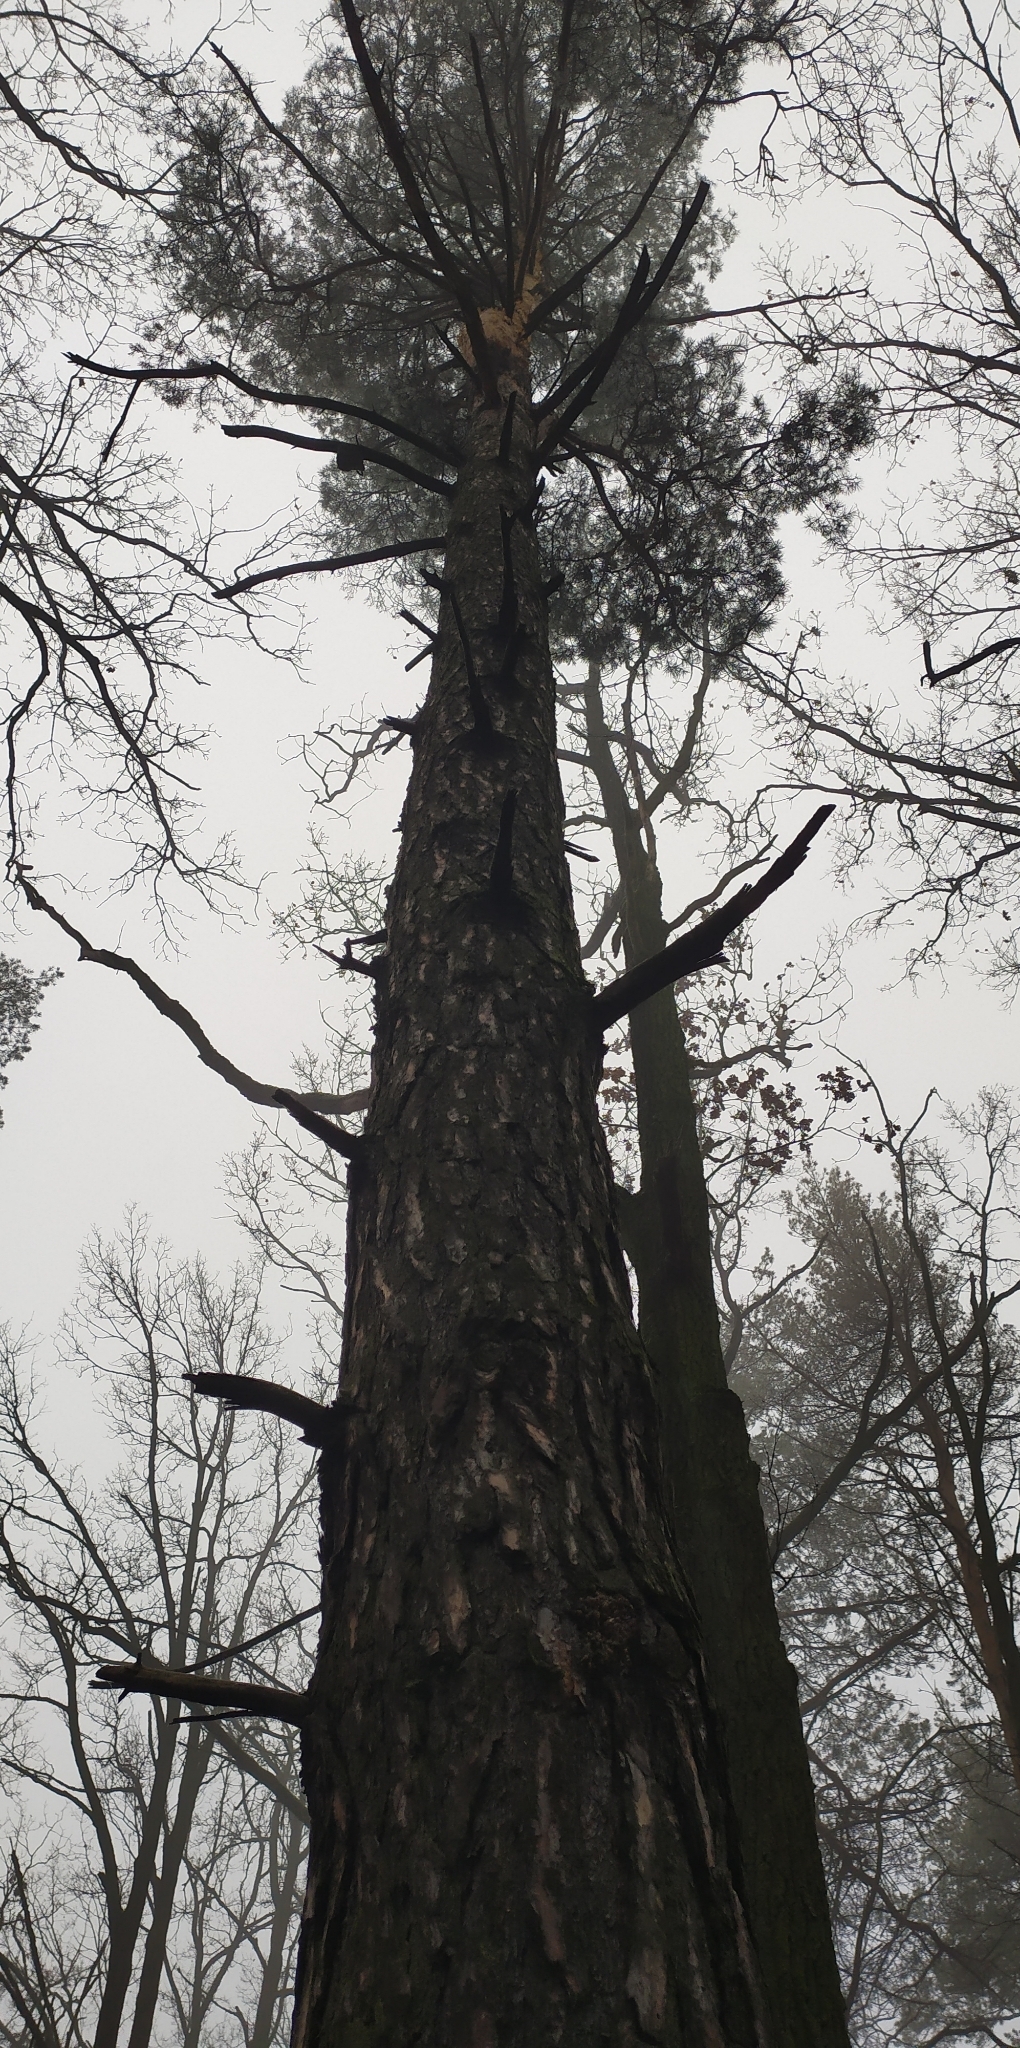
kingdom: Plantae
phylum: Tracheophyta
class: Pinopsida
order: Pinales
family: Pinaceae
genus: Pinus
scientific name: Pinus sylvestris
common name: Scots pine
